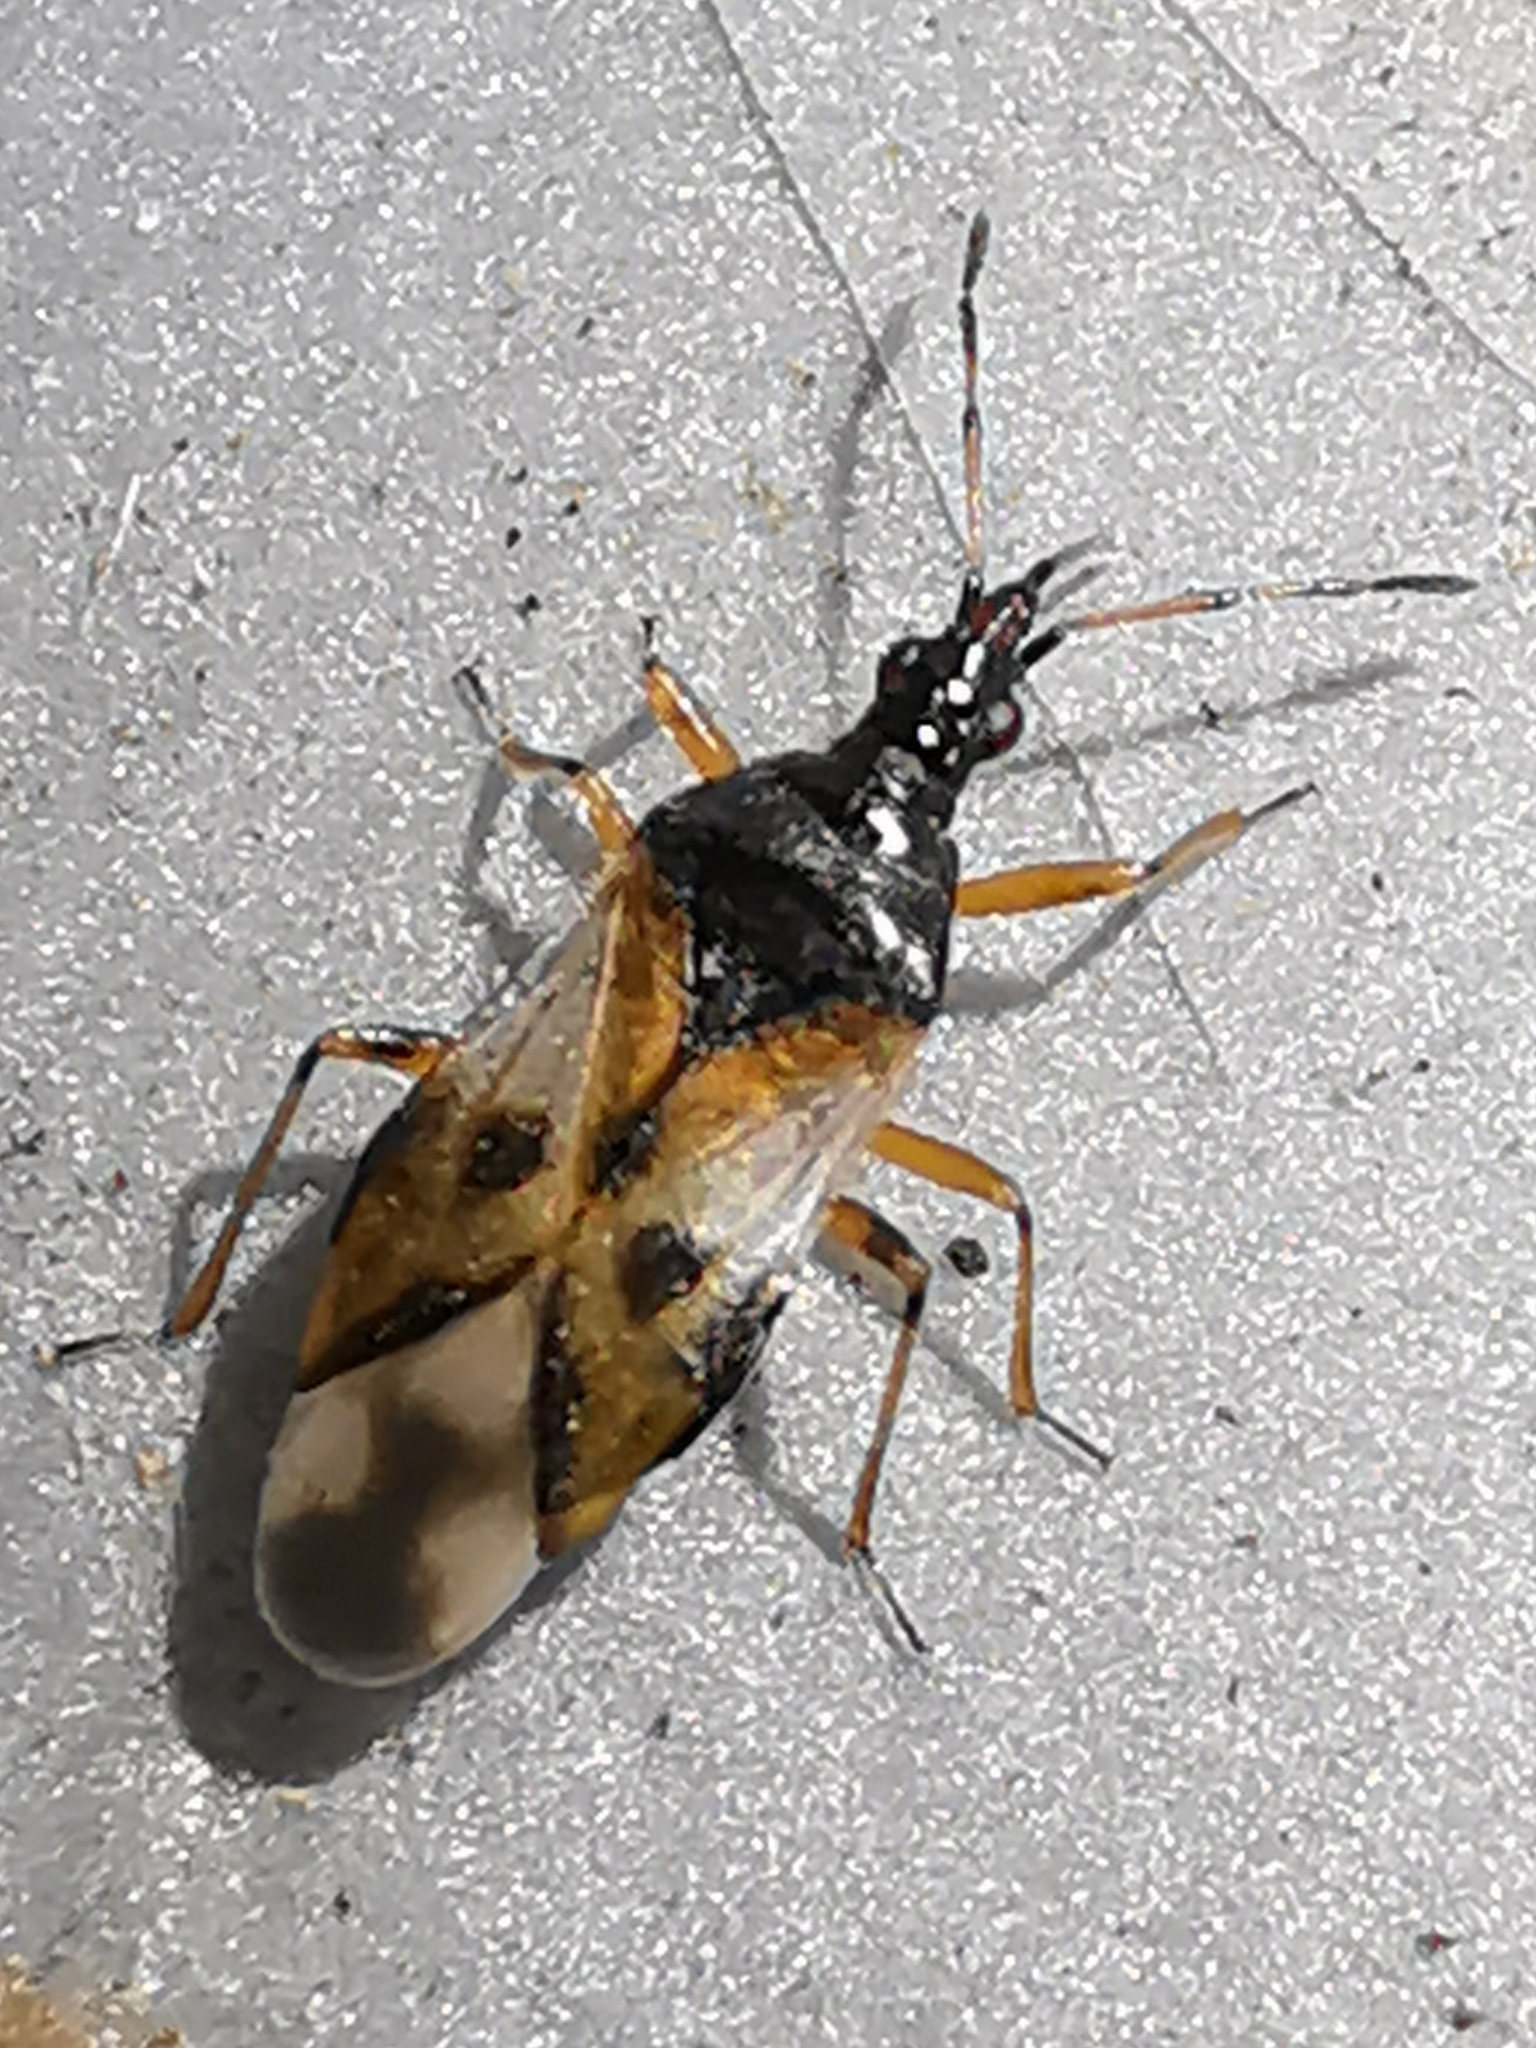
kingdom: Animalia
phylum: Arthropoda
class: Insecta
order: Hemiptera
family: Anthocoridae
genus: Anthocoris
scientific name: Anthocoris nemorum
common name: Minute pirate bug
